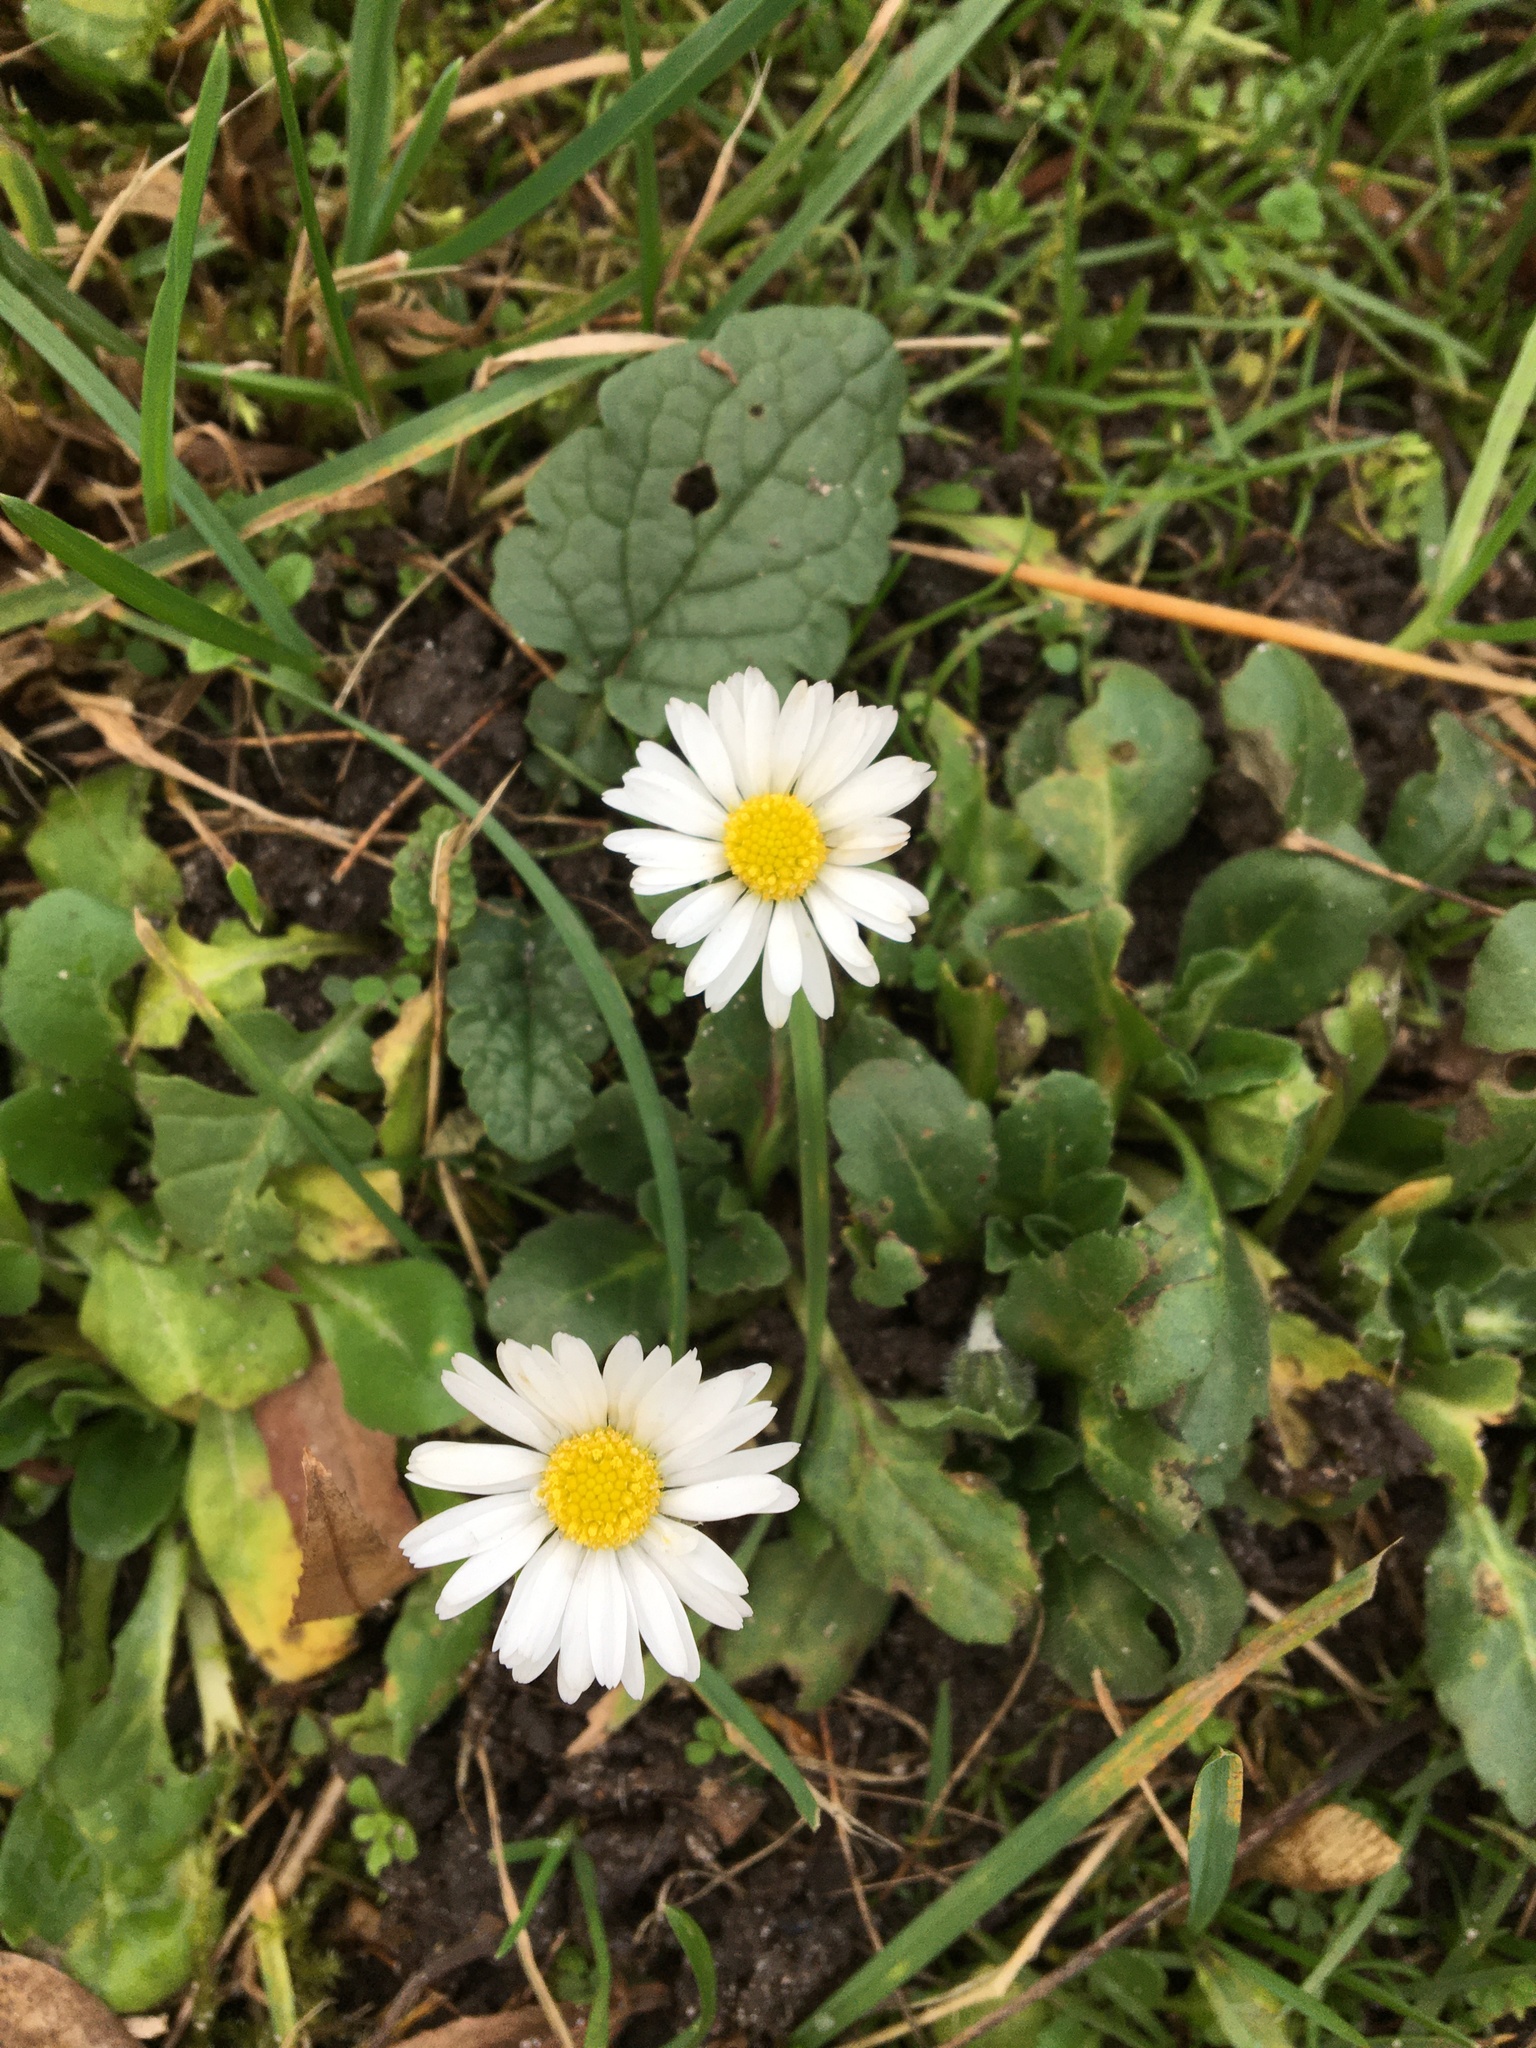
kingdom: Plantae
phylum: Tracheophyta
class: Magnoliopsida
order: Asterales
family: Asteraceae
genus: Bellis
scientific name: Bellis perennis
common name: Lawndaisy
